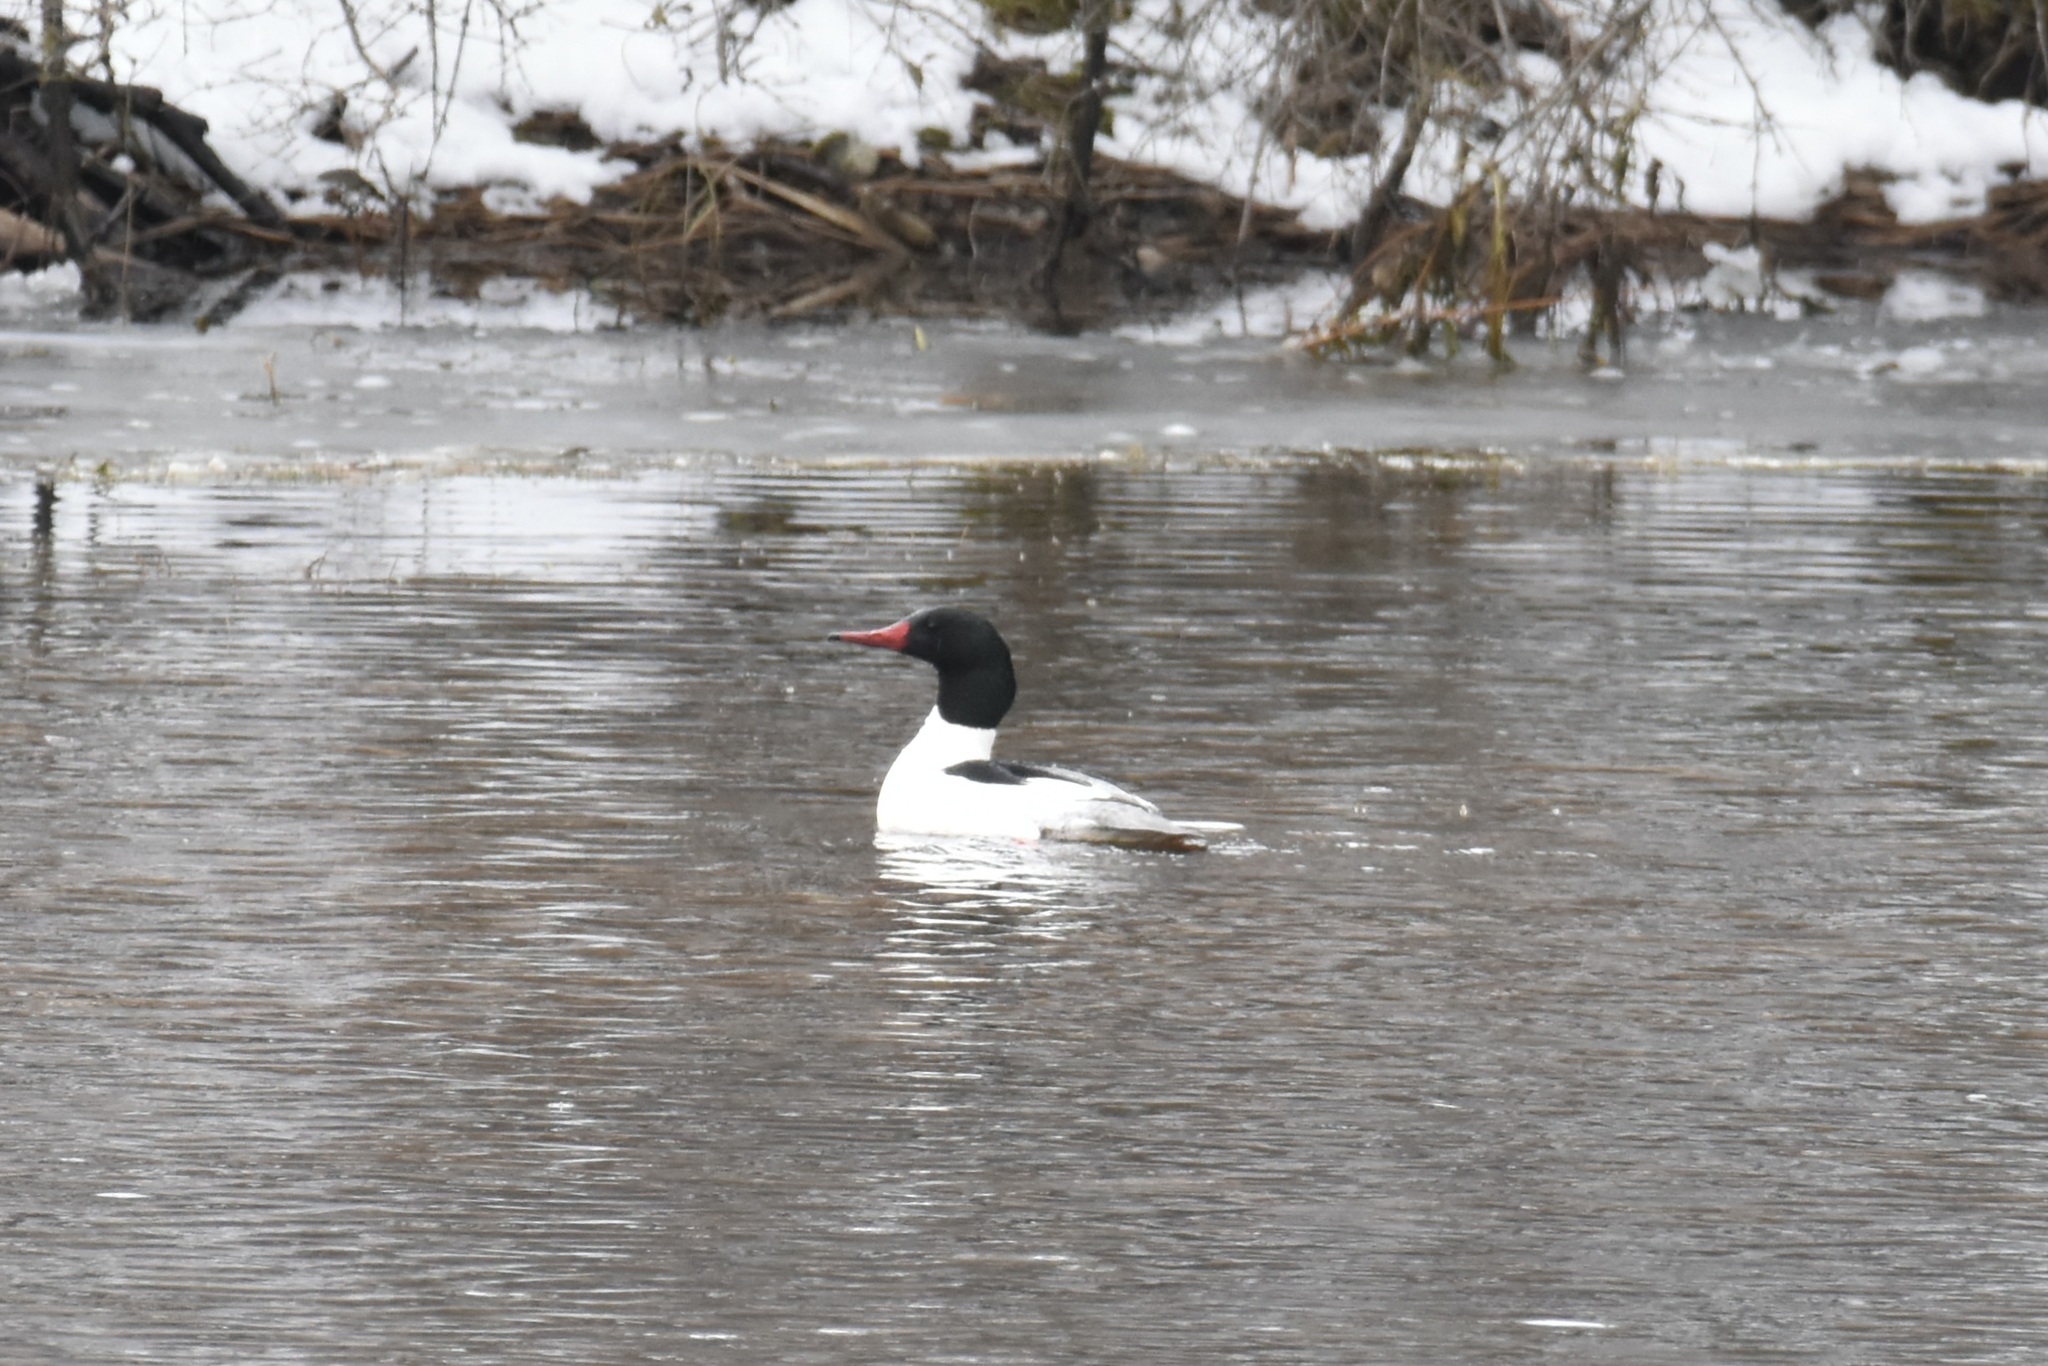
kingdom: Animalia
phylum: Chordata
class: Aves
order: Anseriformes
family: Anatidae
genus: Mergus
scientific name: Mergus merganser
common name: Common merganser
